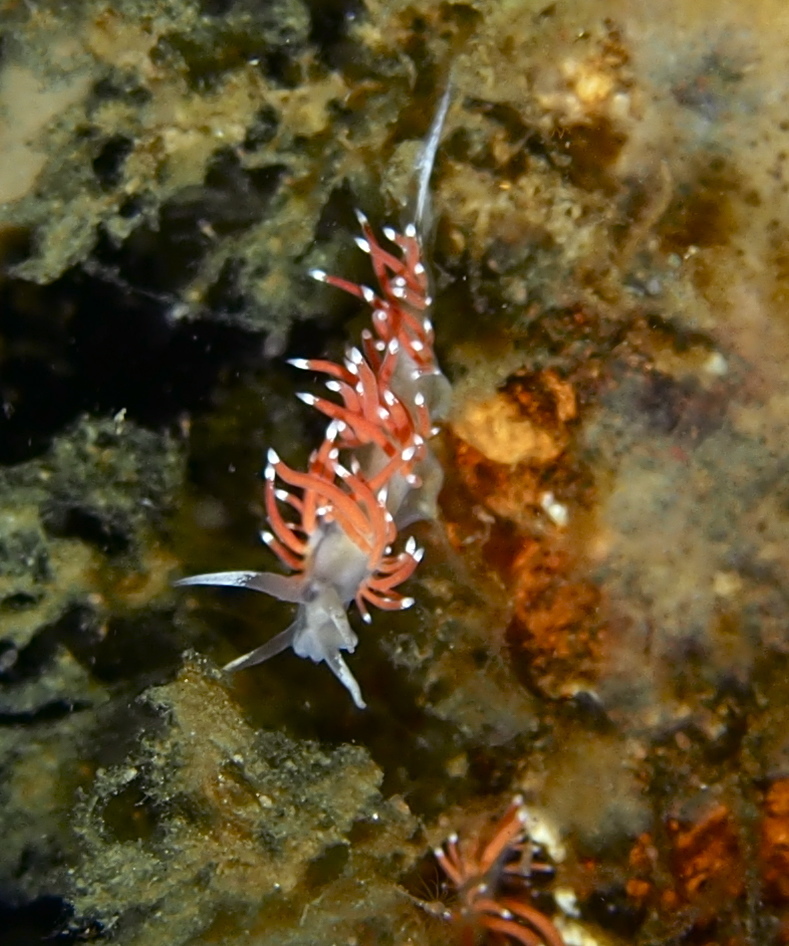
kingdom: Animalia
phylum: Mollusca
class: Gastropoda
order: Nudibranchia
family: Coryphellidae
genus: Coryphella
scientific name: Coryphella gracilis
